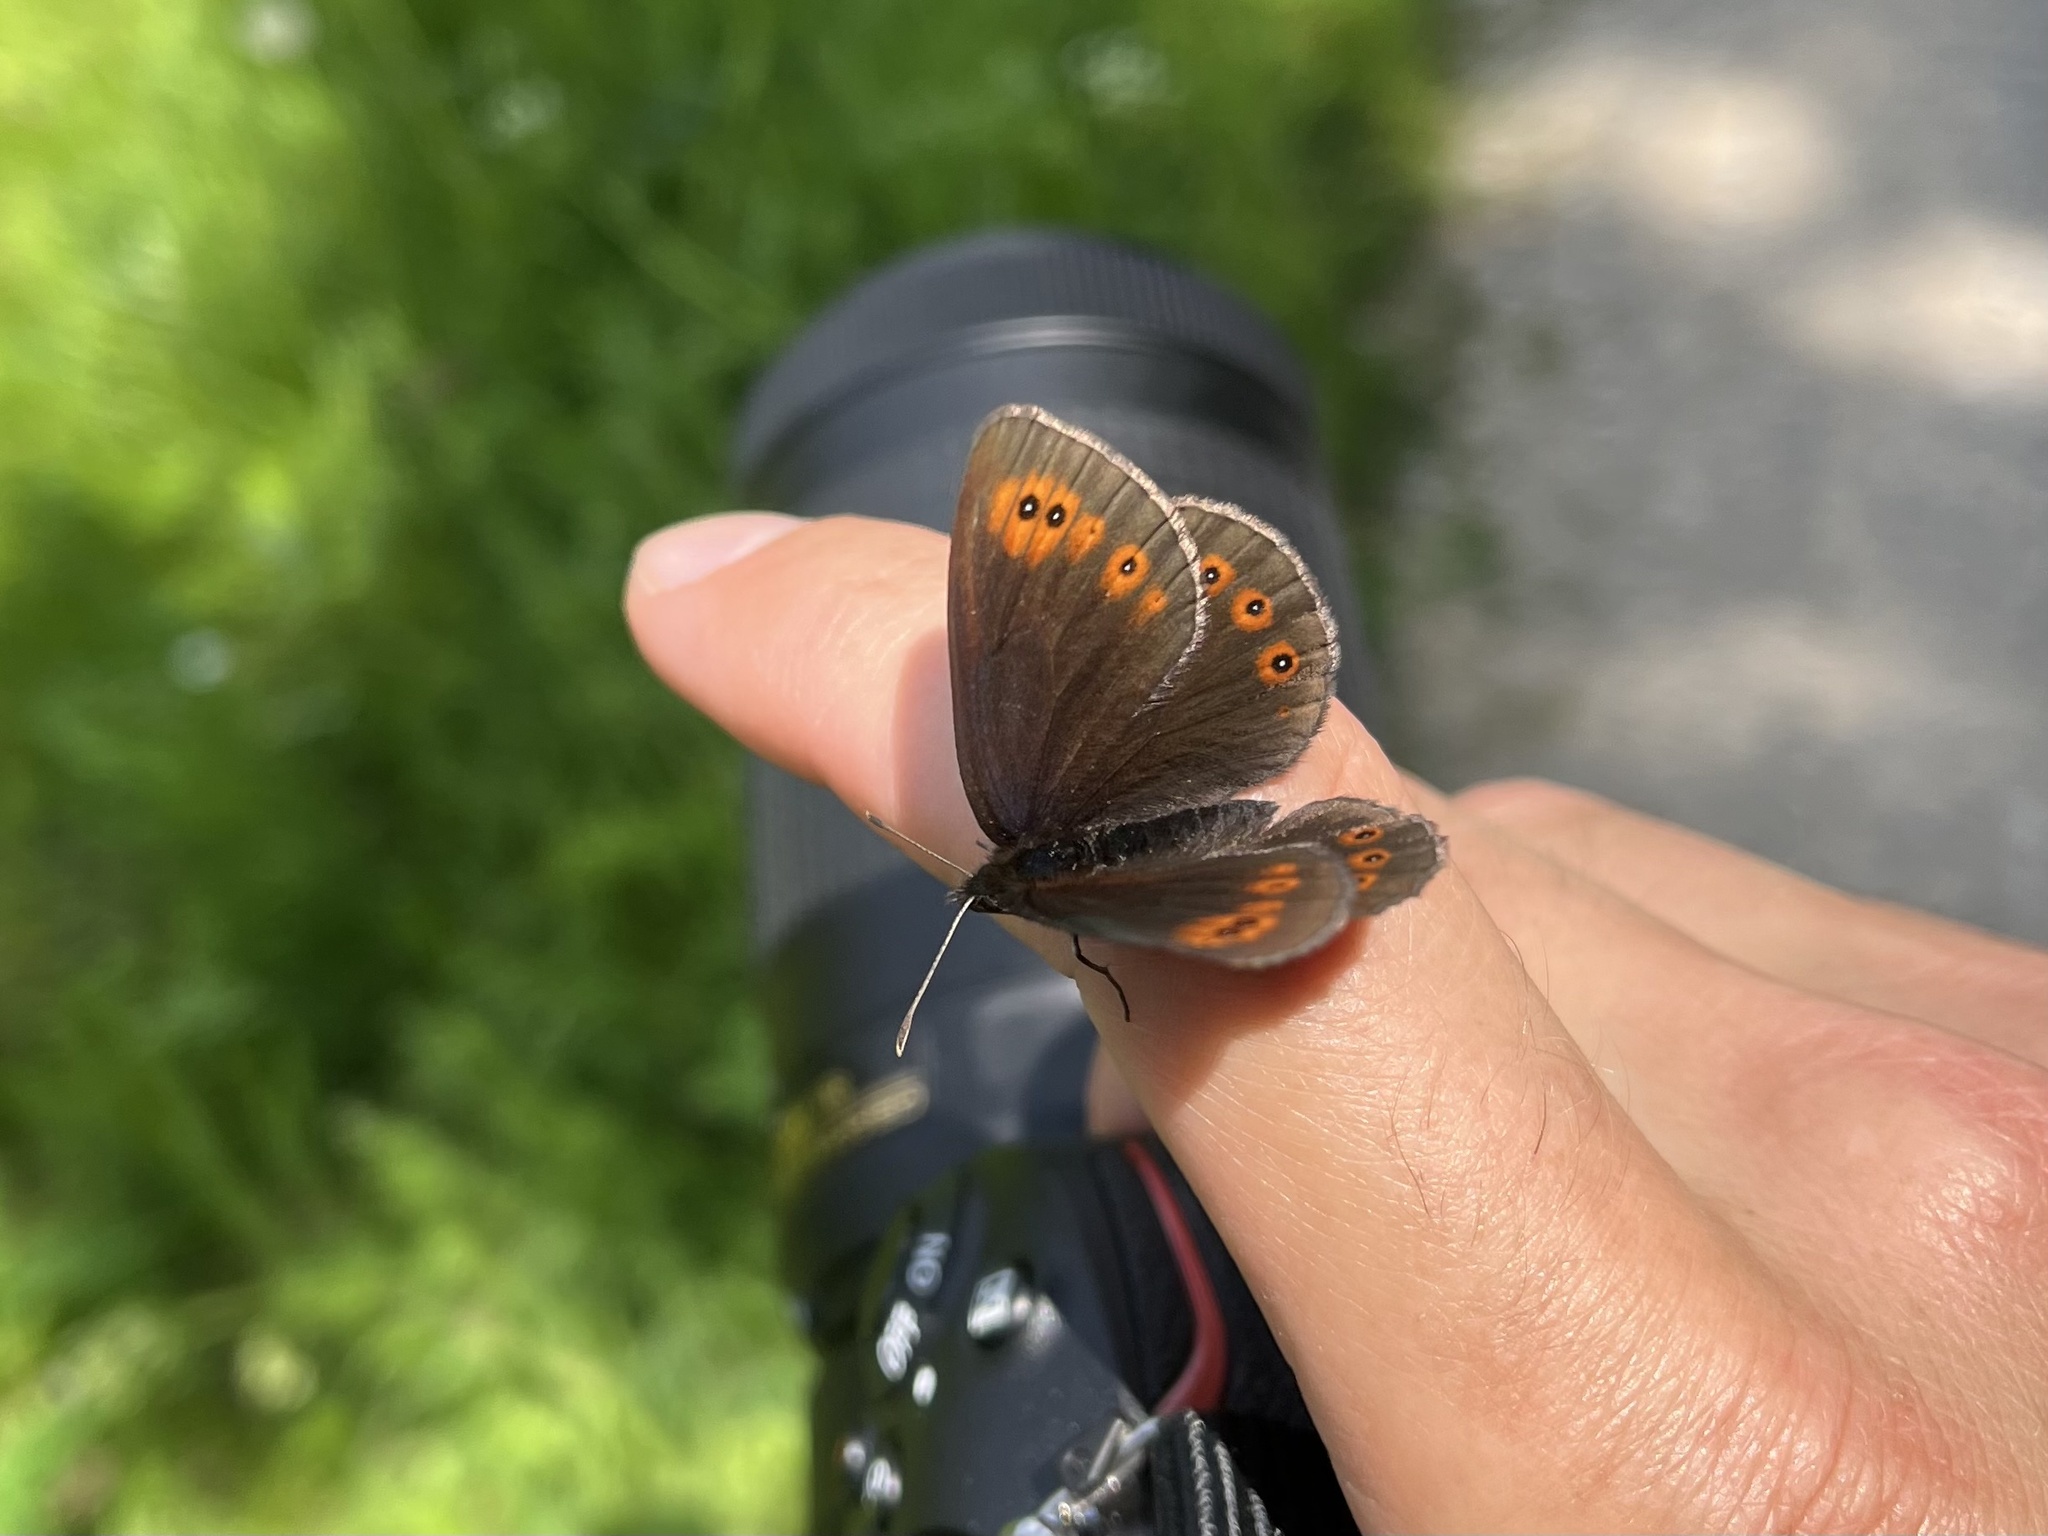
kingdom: Animalia
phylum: Arthropoda
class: Insecta
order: Lepidoptera
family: Nymphalidae
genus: Erebia
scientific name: Erebia medusa
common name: Woodland ringlet
